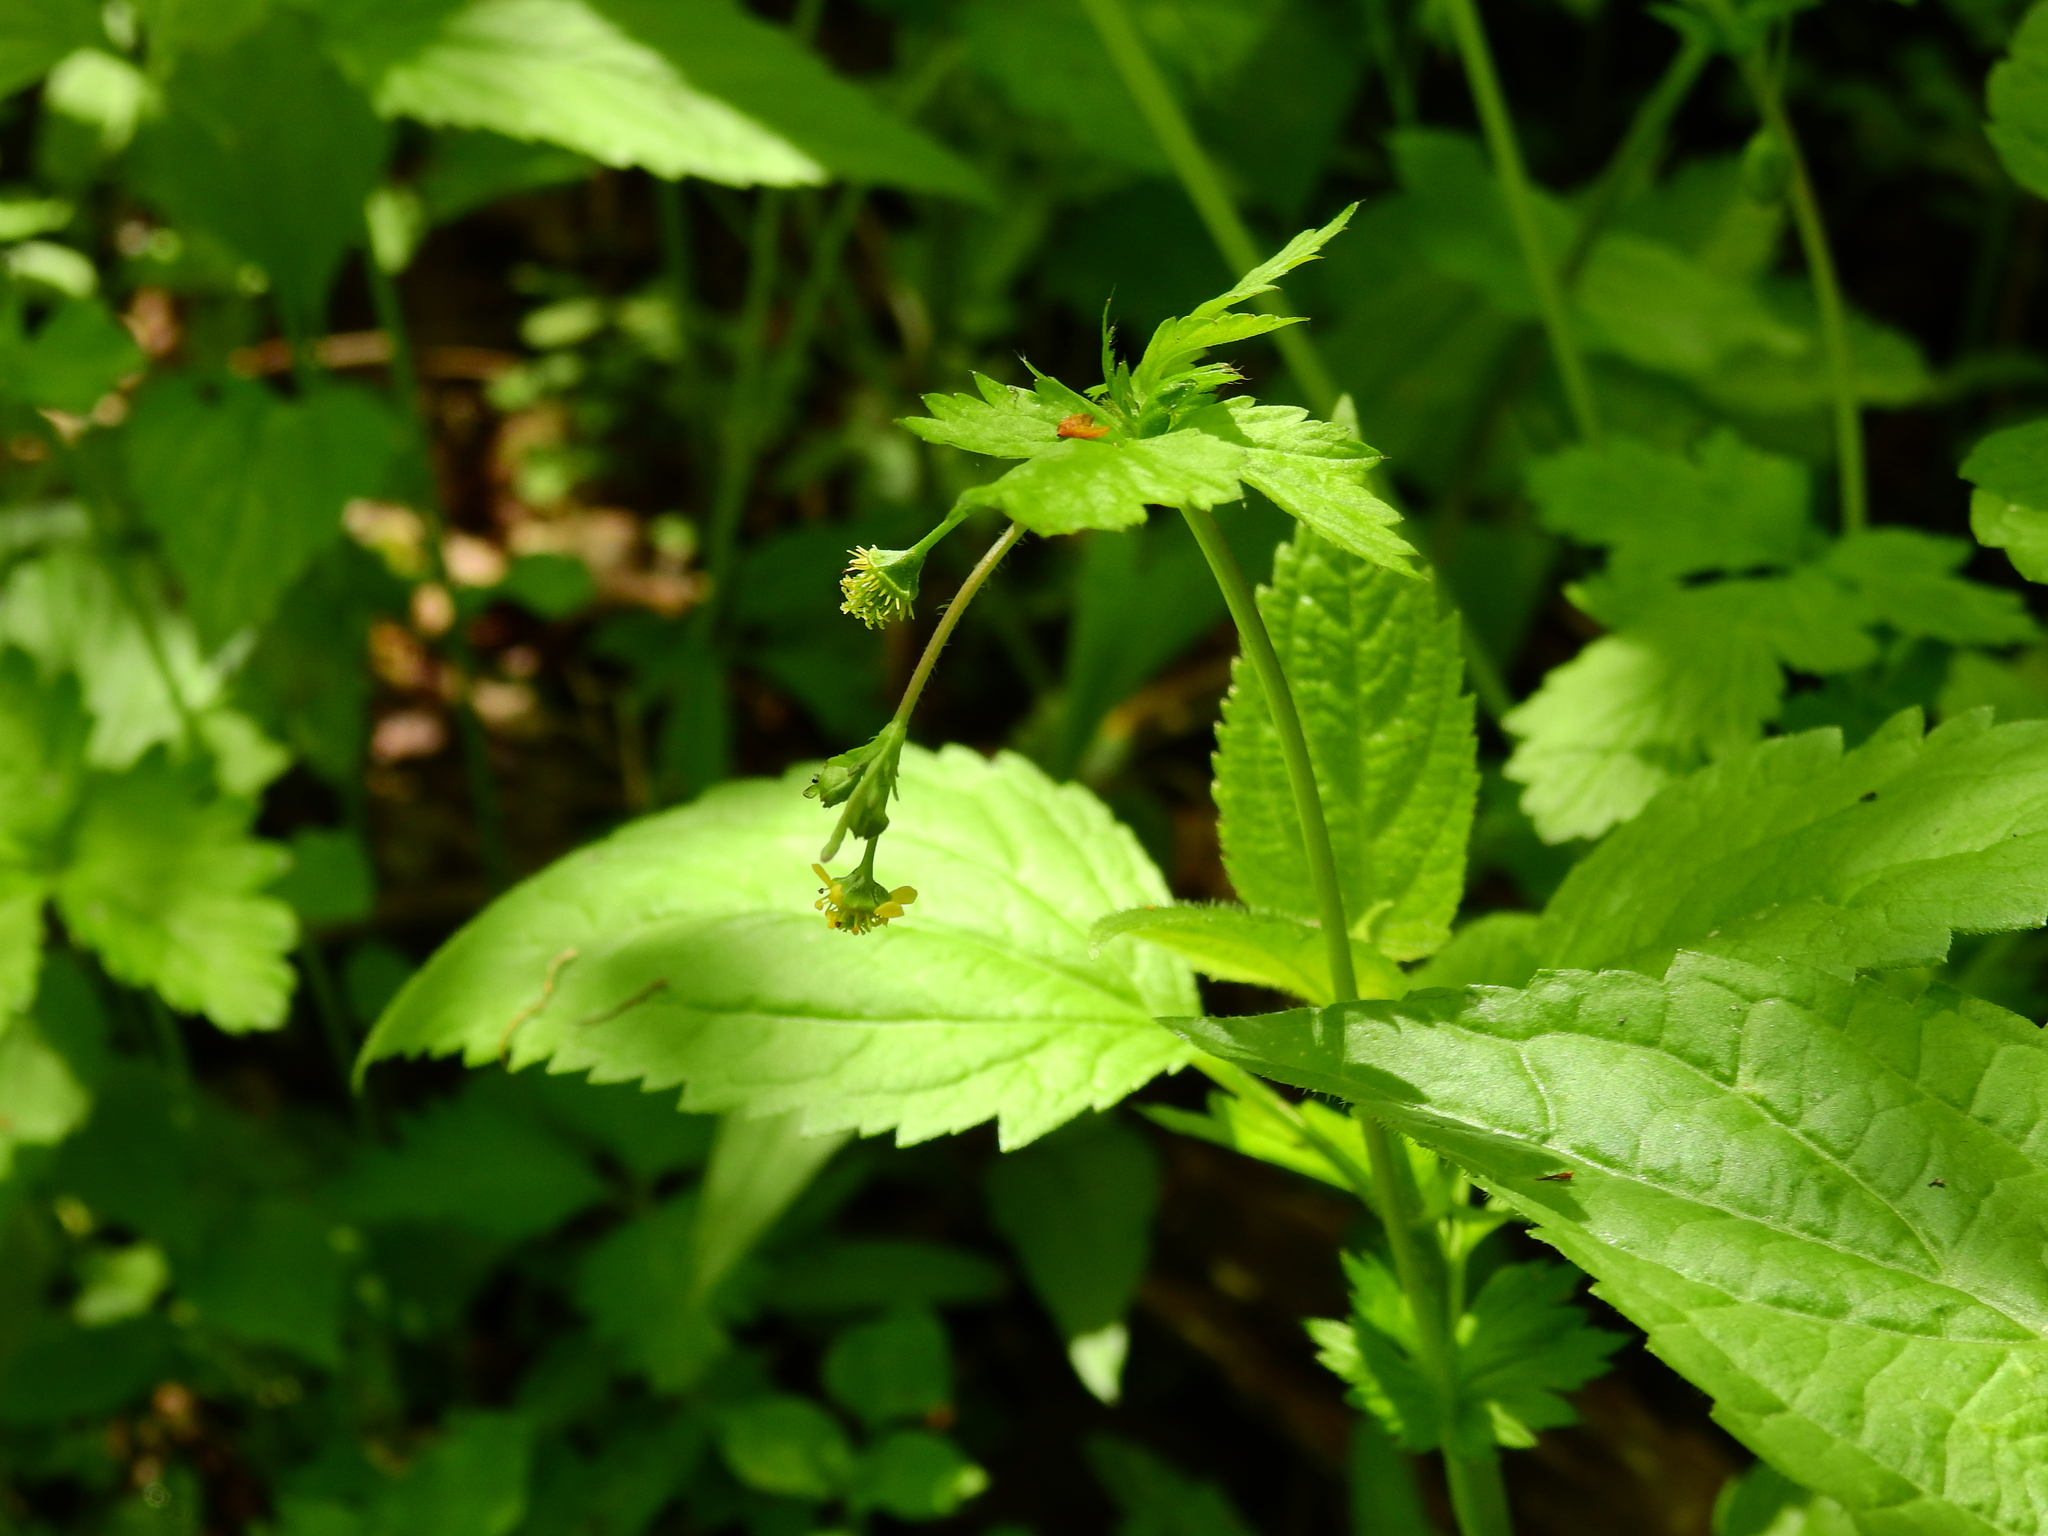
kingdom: Plantae
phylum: Tracheophyta
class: Magnoliopsida
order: Rosales
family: Rosaceae
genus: Geum
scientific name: Geum vernum
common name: Spring avens
